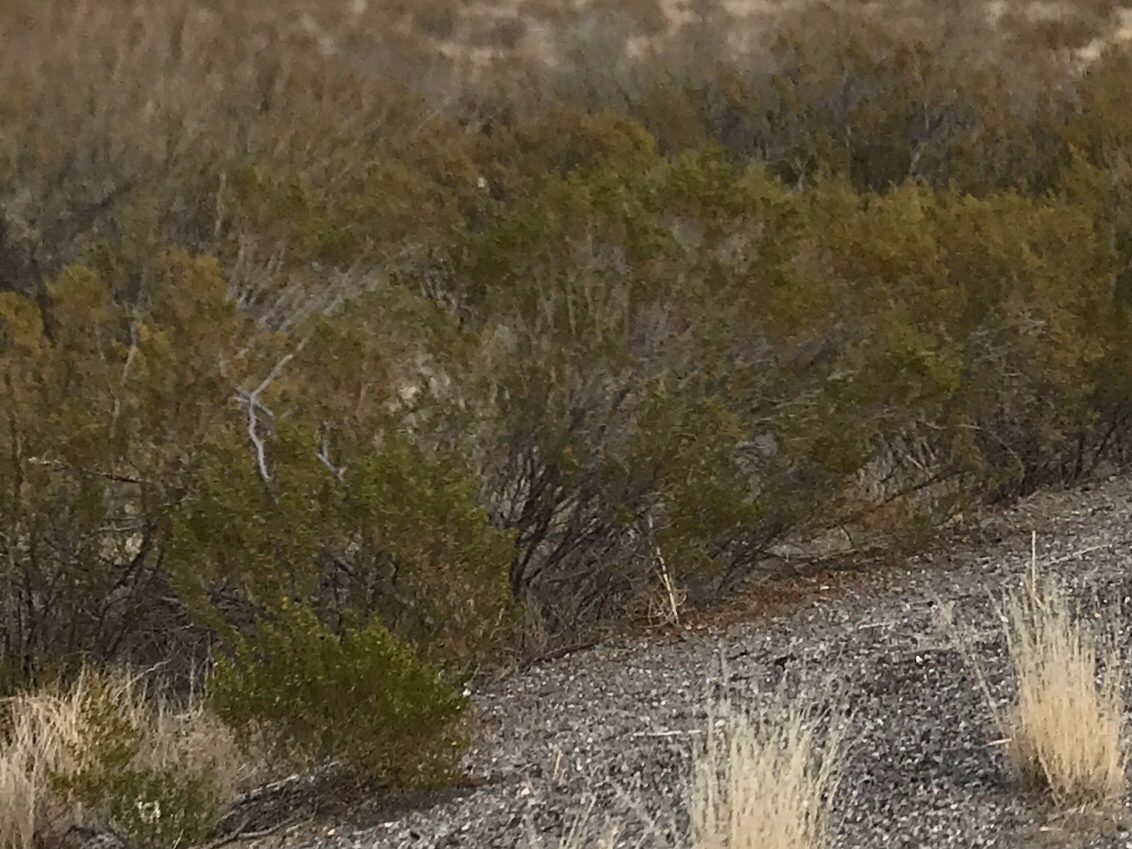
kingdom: Plantae
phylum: Tracheophyta
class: Magnoliopsida
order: Zygophyllales
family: Zygophyllaceae
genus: Larrea
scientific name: Larrea tridentata
